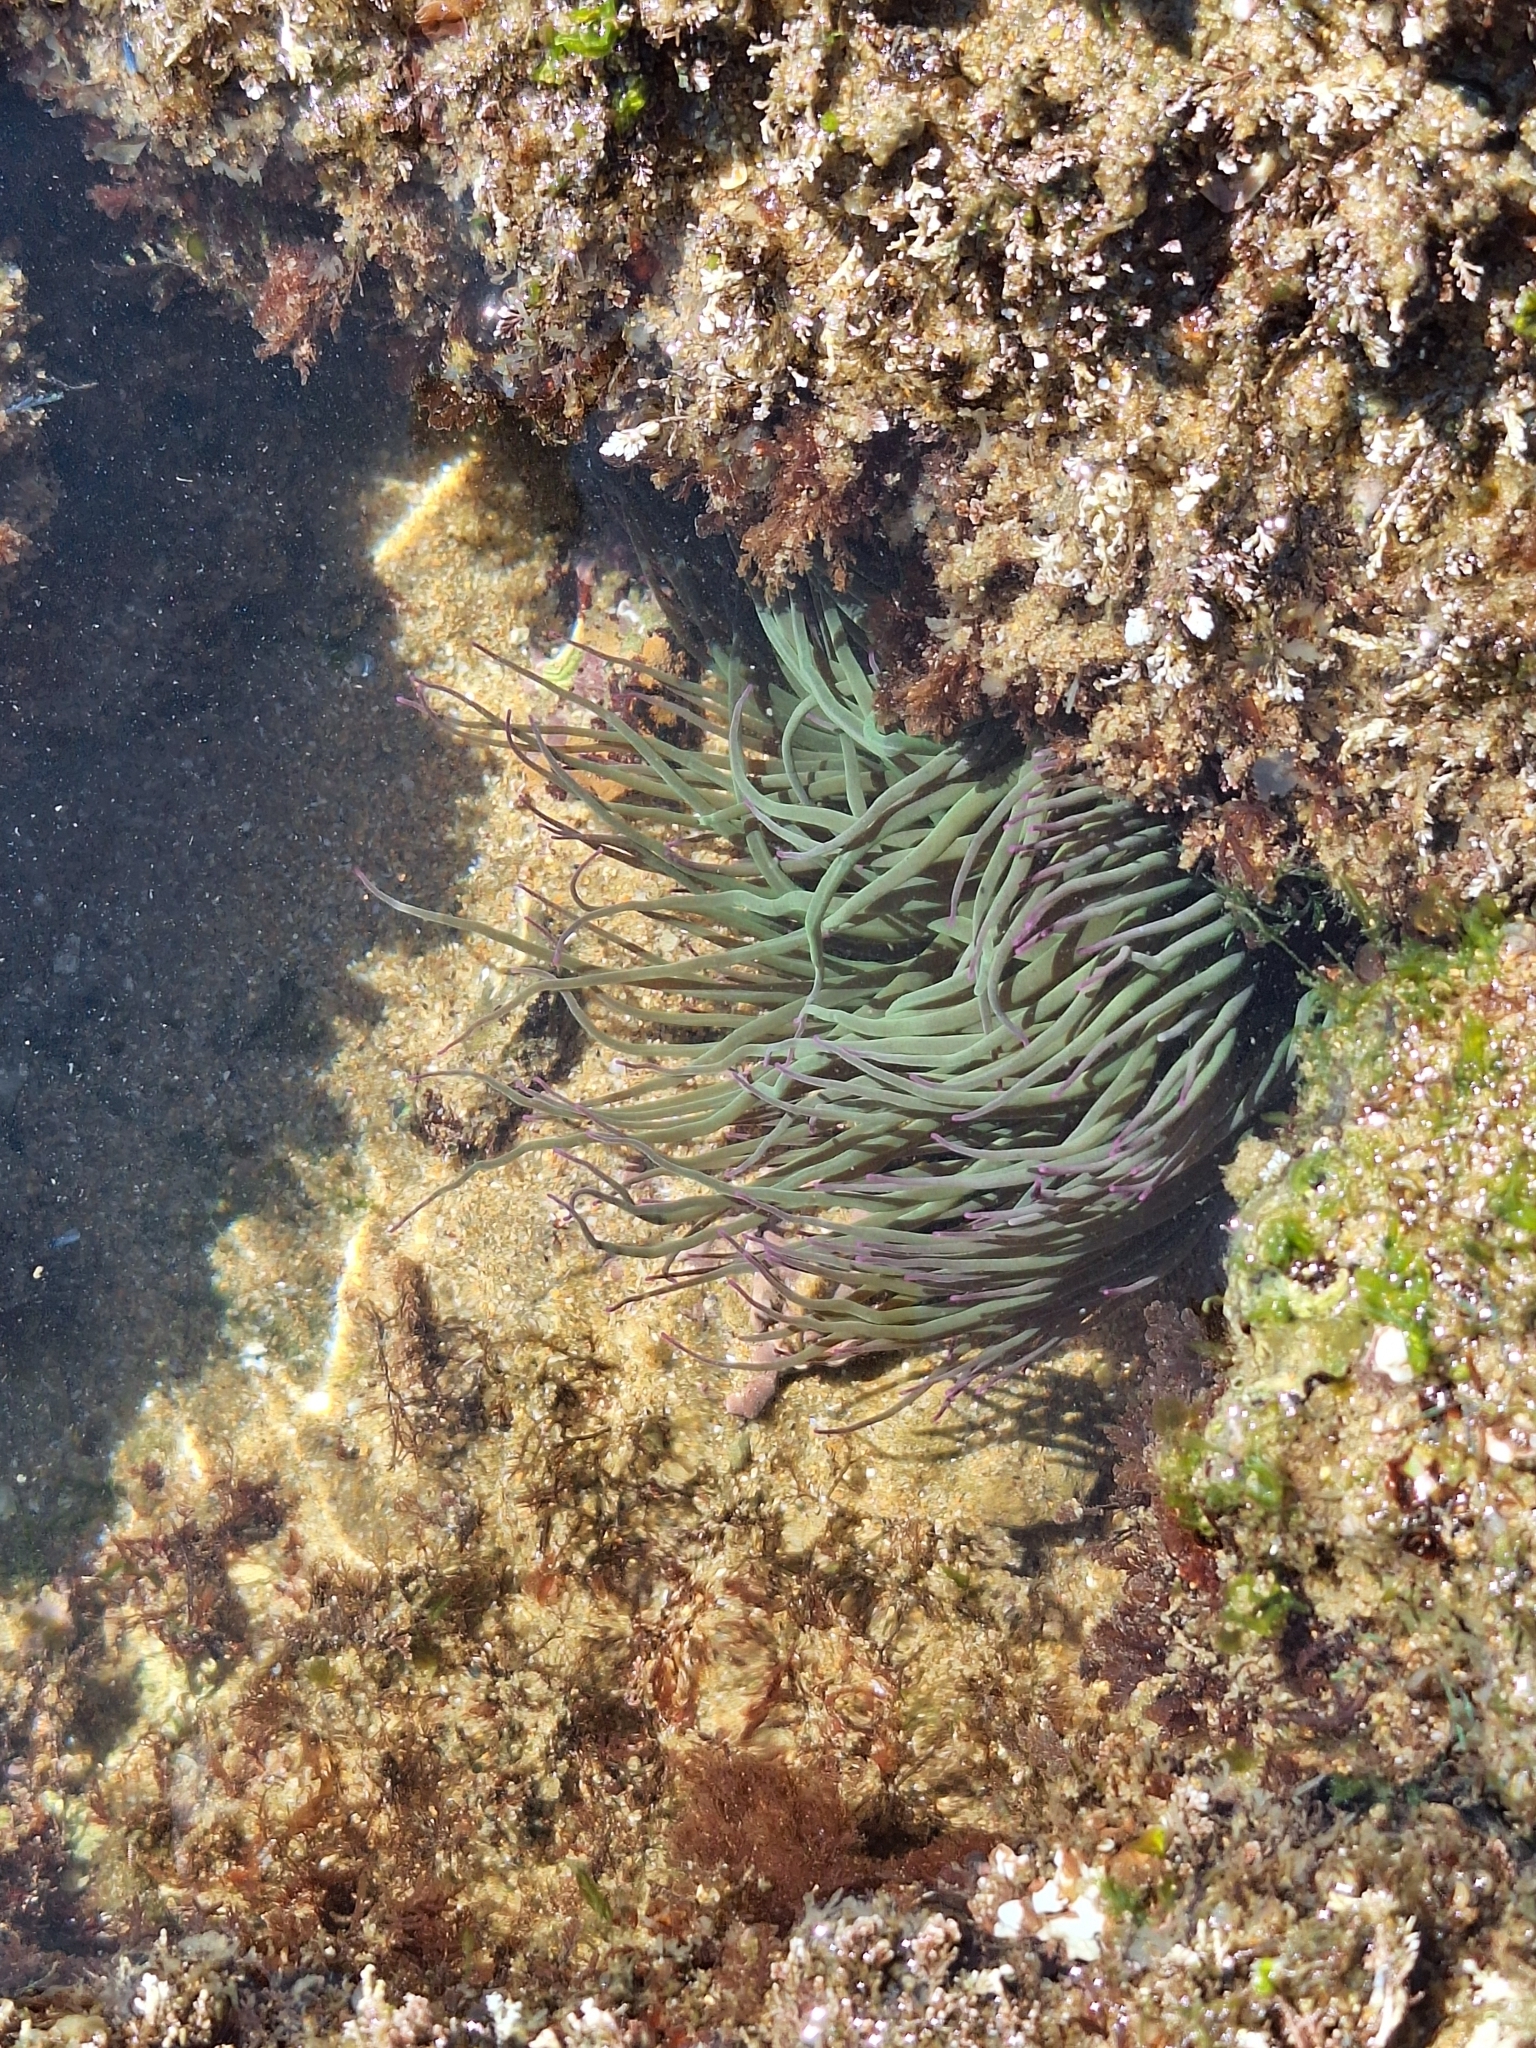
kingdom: Animalia
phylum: Cnidaria
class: Anthozoa
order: Actiniaria
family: Actiniidae
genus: Anemonia
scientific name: Anemonia viridis
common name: Snakelocks anemone
